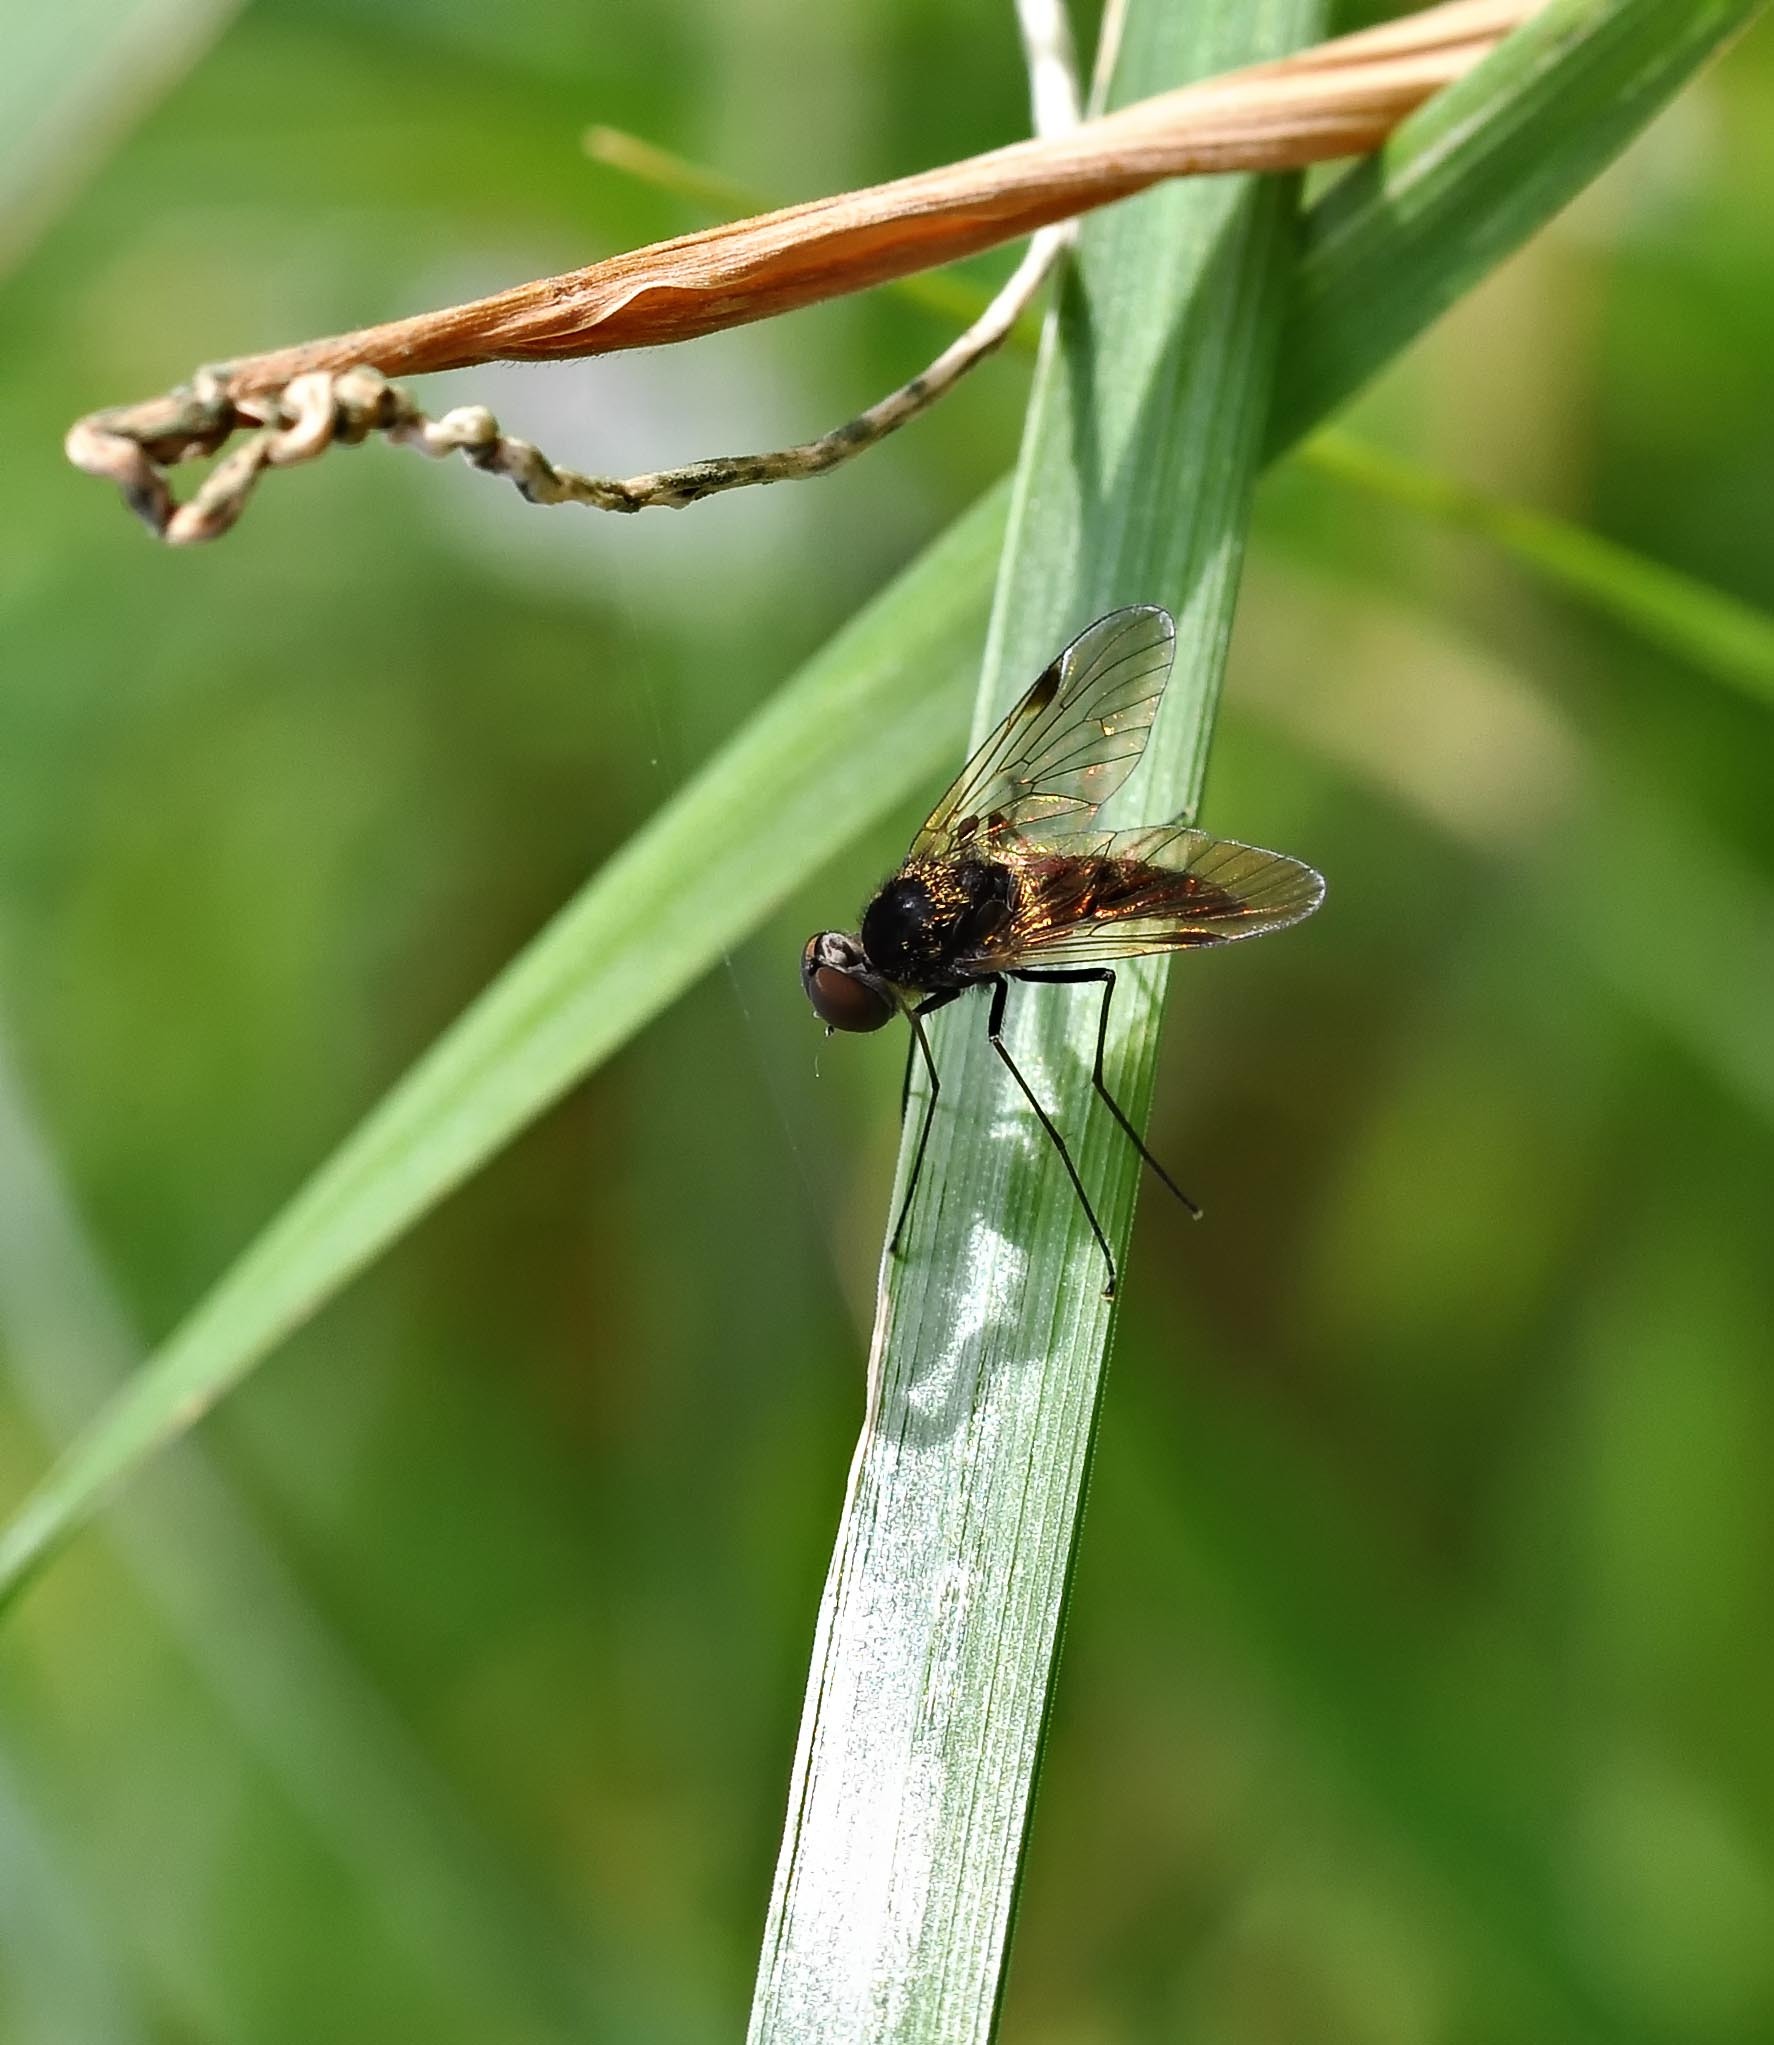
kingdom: Animalia
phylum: Arthropoda
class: Insecta
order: Diptera
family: Rhagionidae
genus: Chrysopilus
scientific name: Chrysopilus cristatus
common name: Black snipefly
